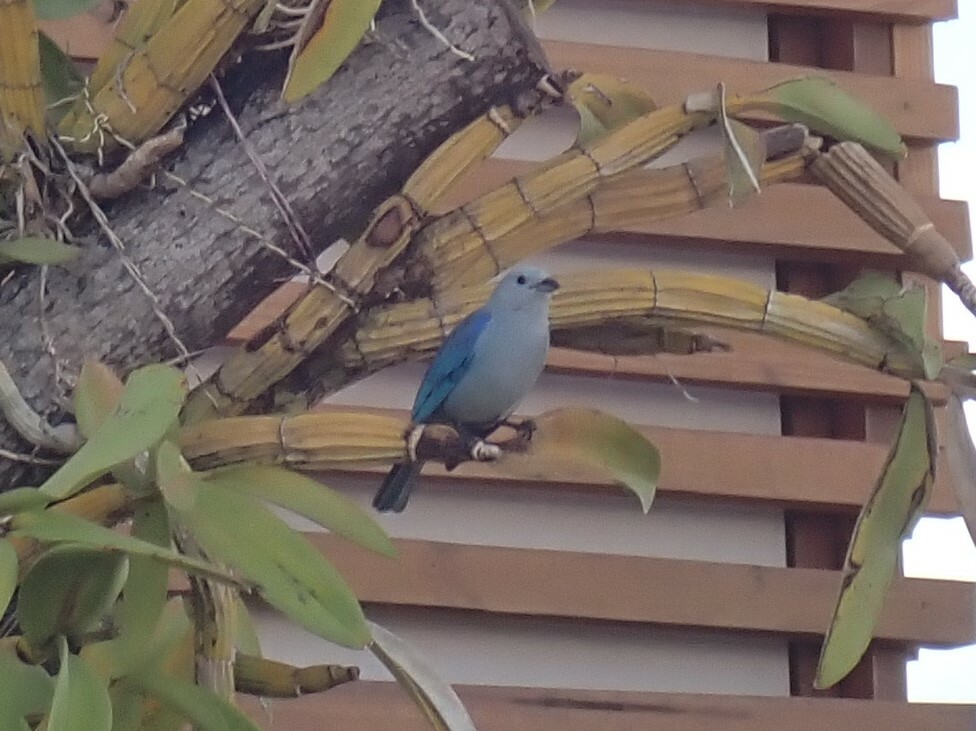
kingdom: Animalia
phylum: Chordata
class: Aves
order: Passeriformes
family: Thraupidae
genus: Thraupis
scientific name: Thraupis episcopus
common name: Blue-grey tanager
